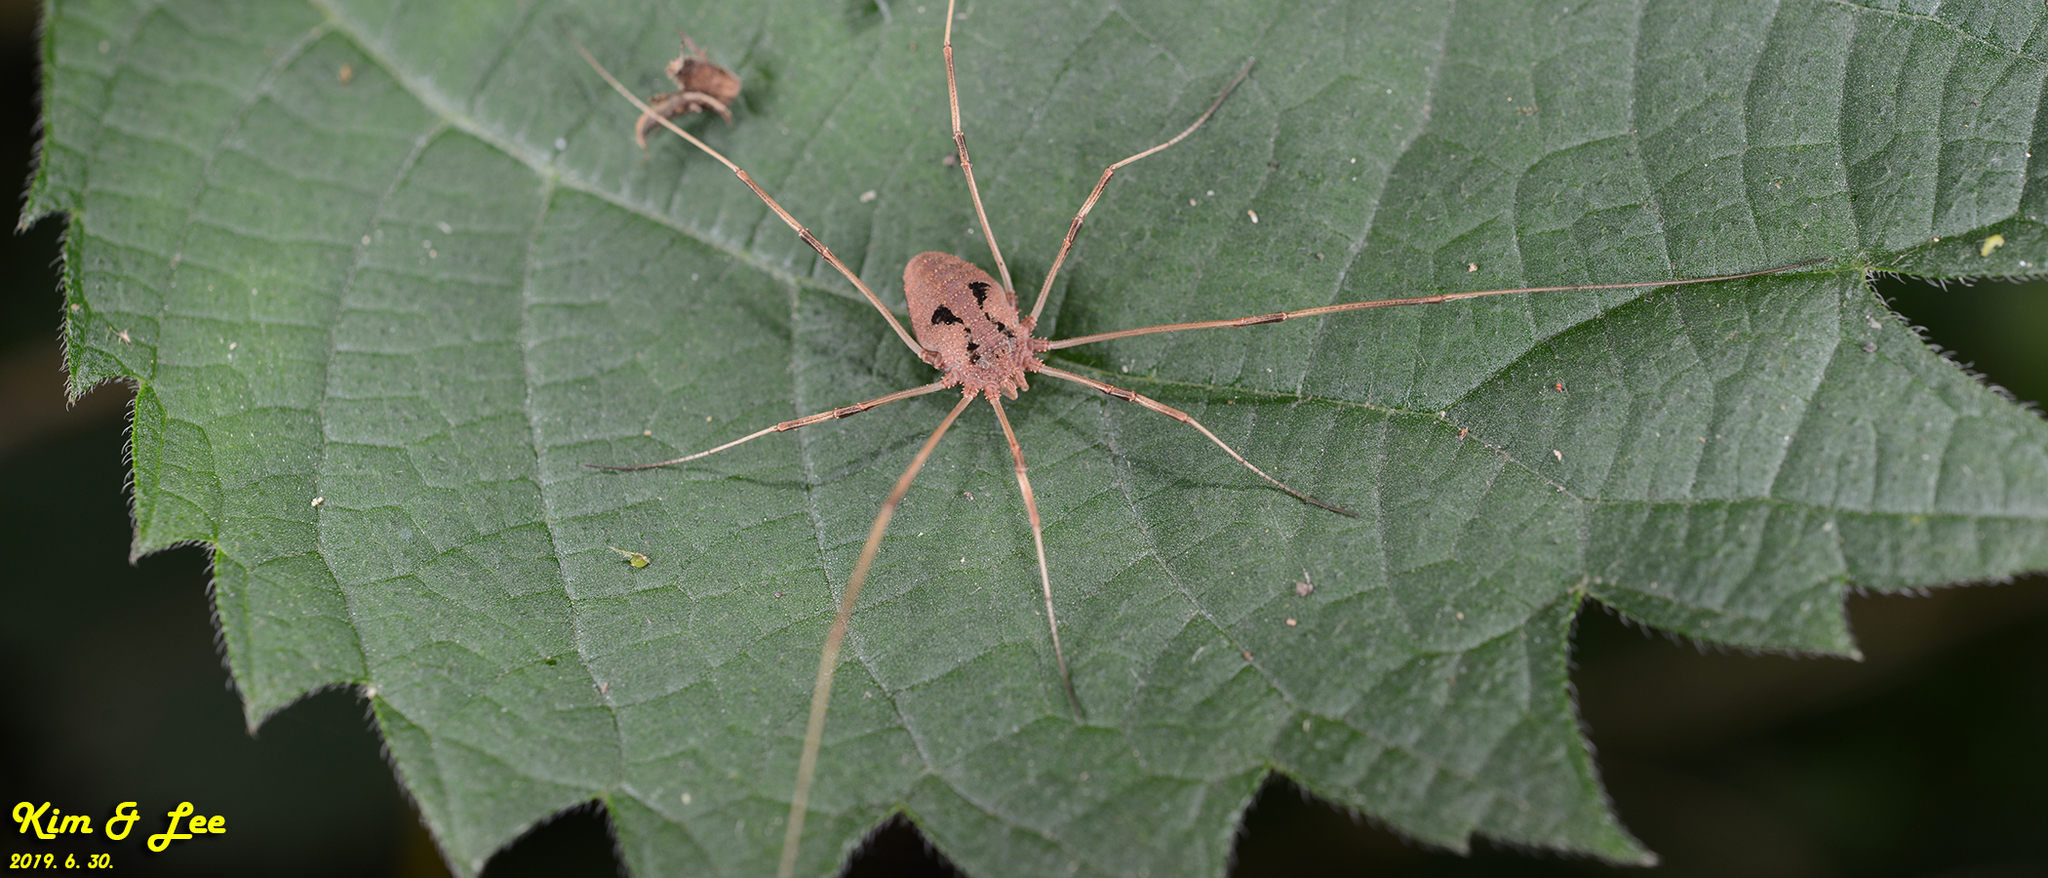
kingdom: Animalia
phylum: Arthropoda
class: Arachnida
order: Opiliones
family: Phalangiidae
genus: Bidentolophus
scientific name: Bidentolophus bidens
